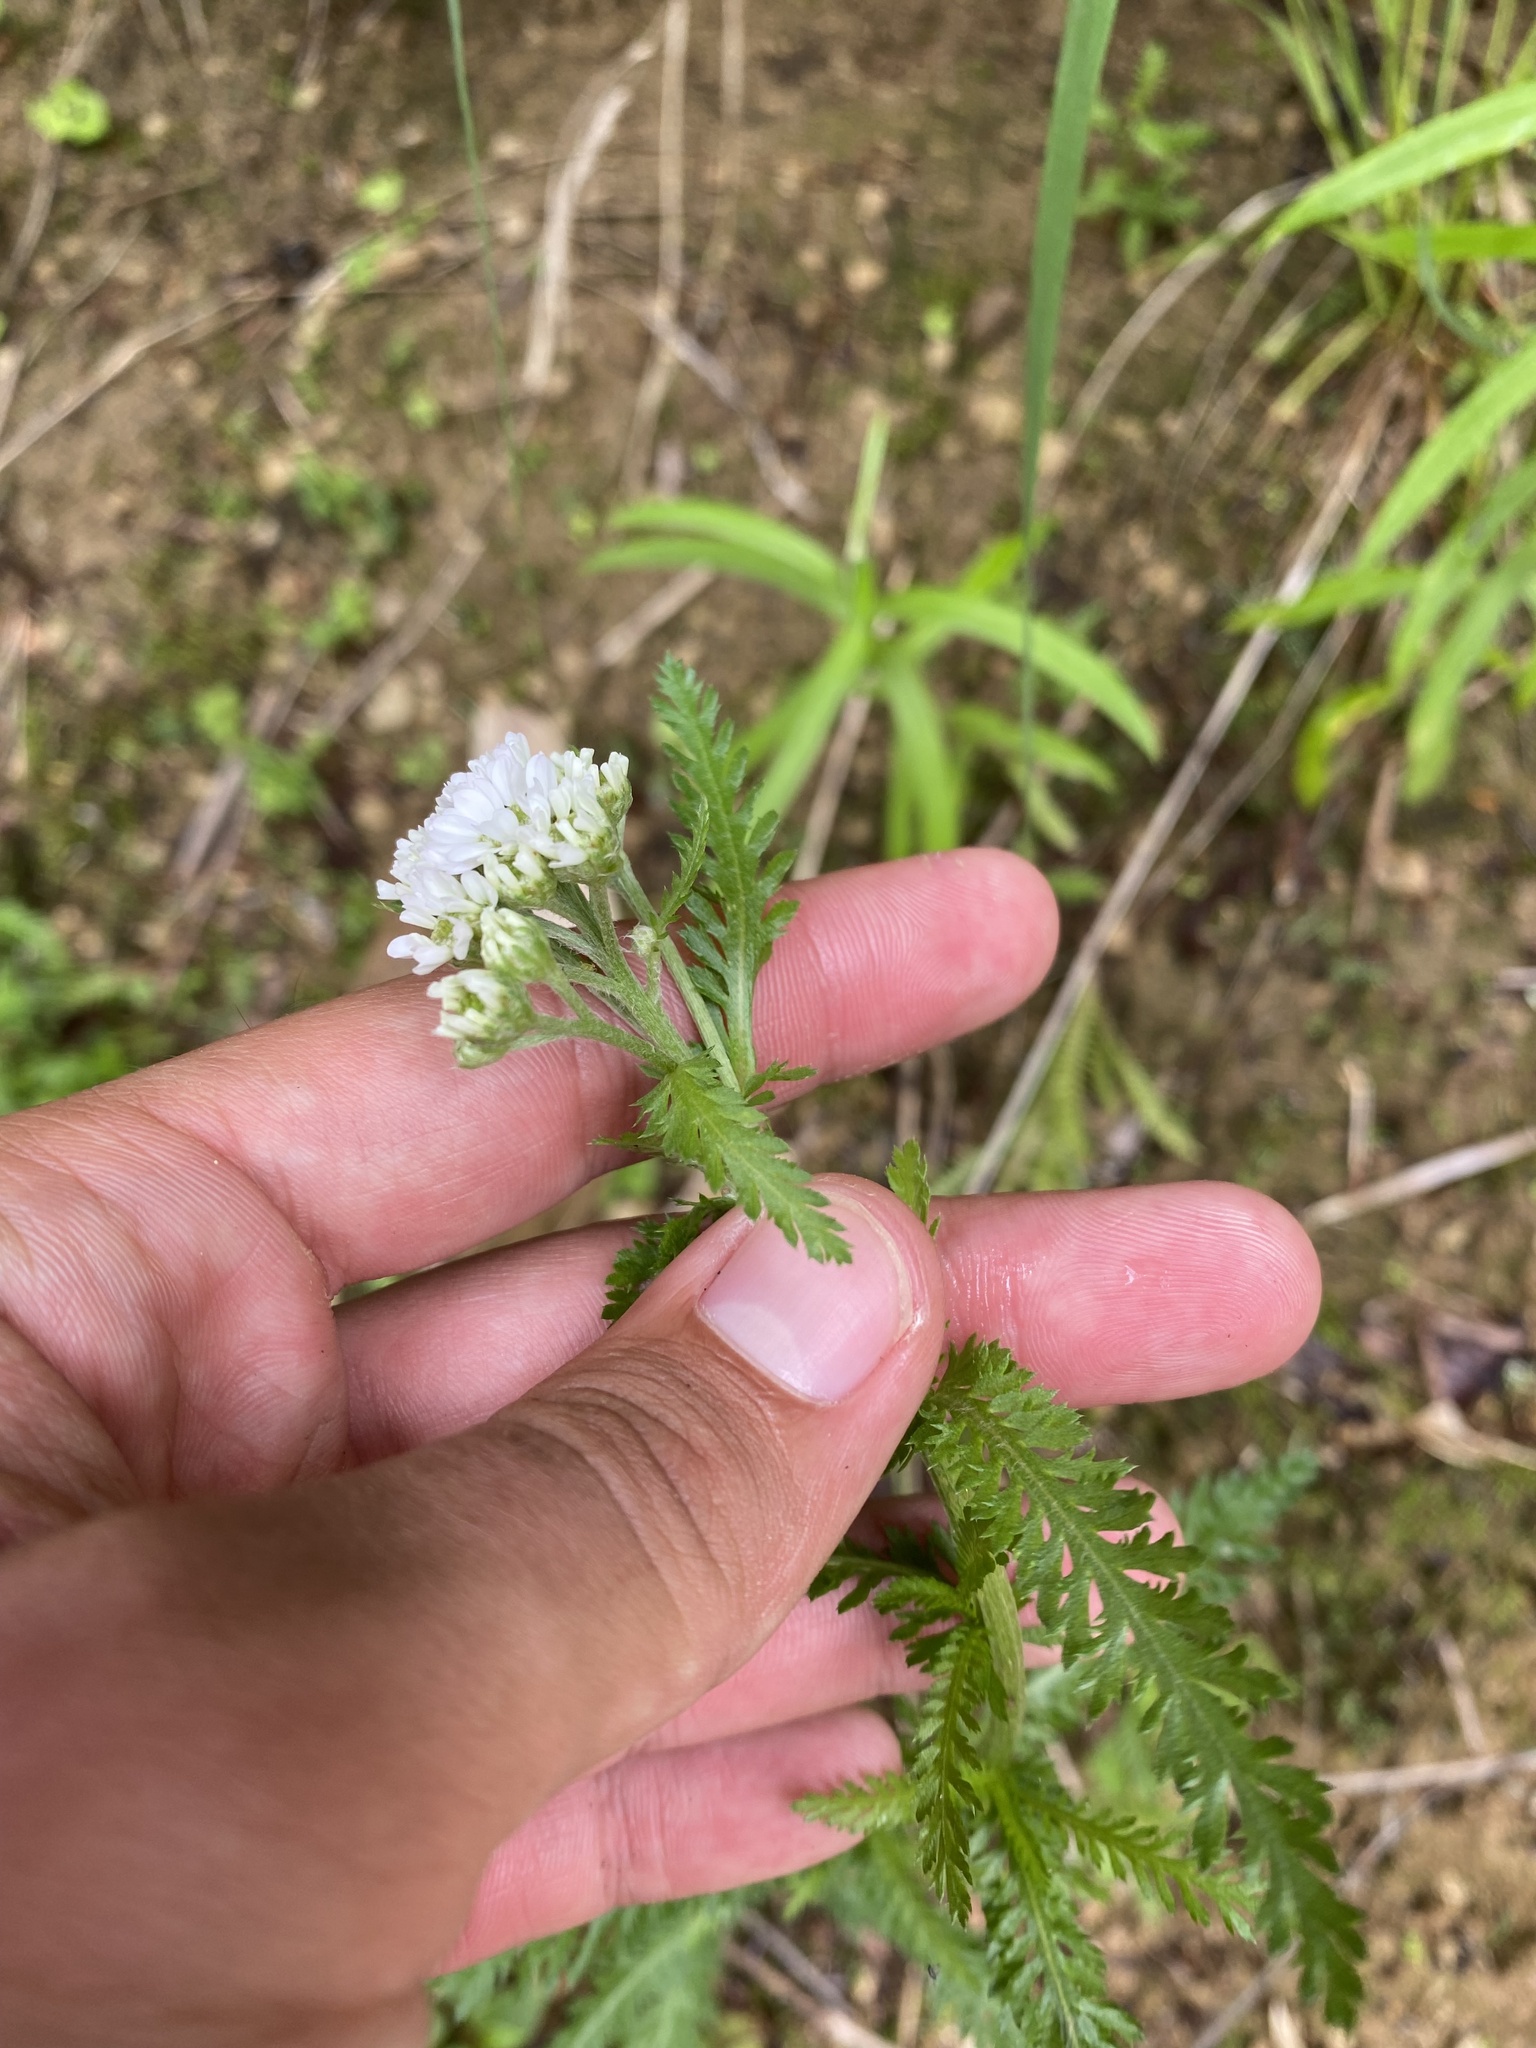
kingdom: Plantae
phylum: Tracheophyta
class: Magnoliopsida
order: Asterales
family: Asteraceae
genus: Achillea
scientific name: Achillea alpina
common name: Siberian yarrow
